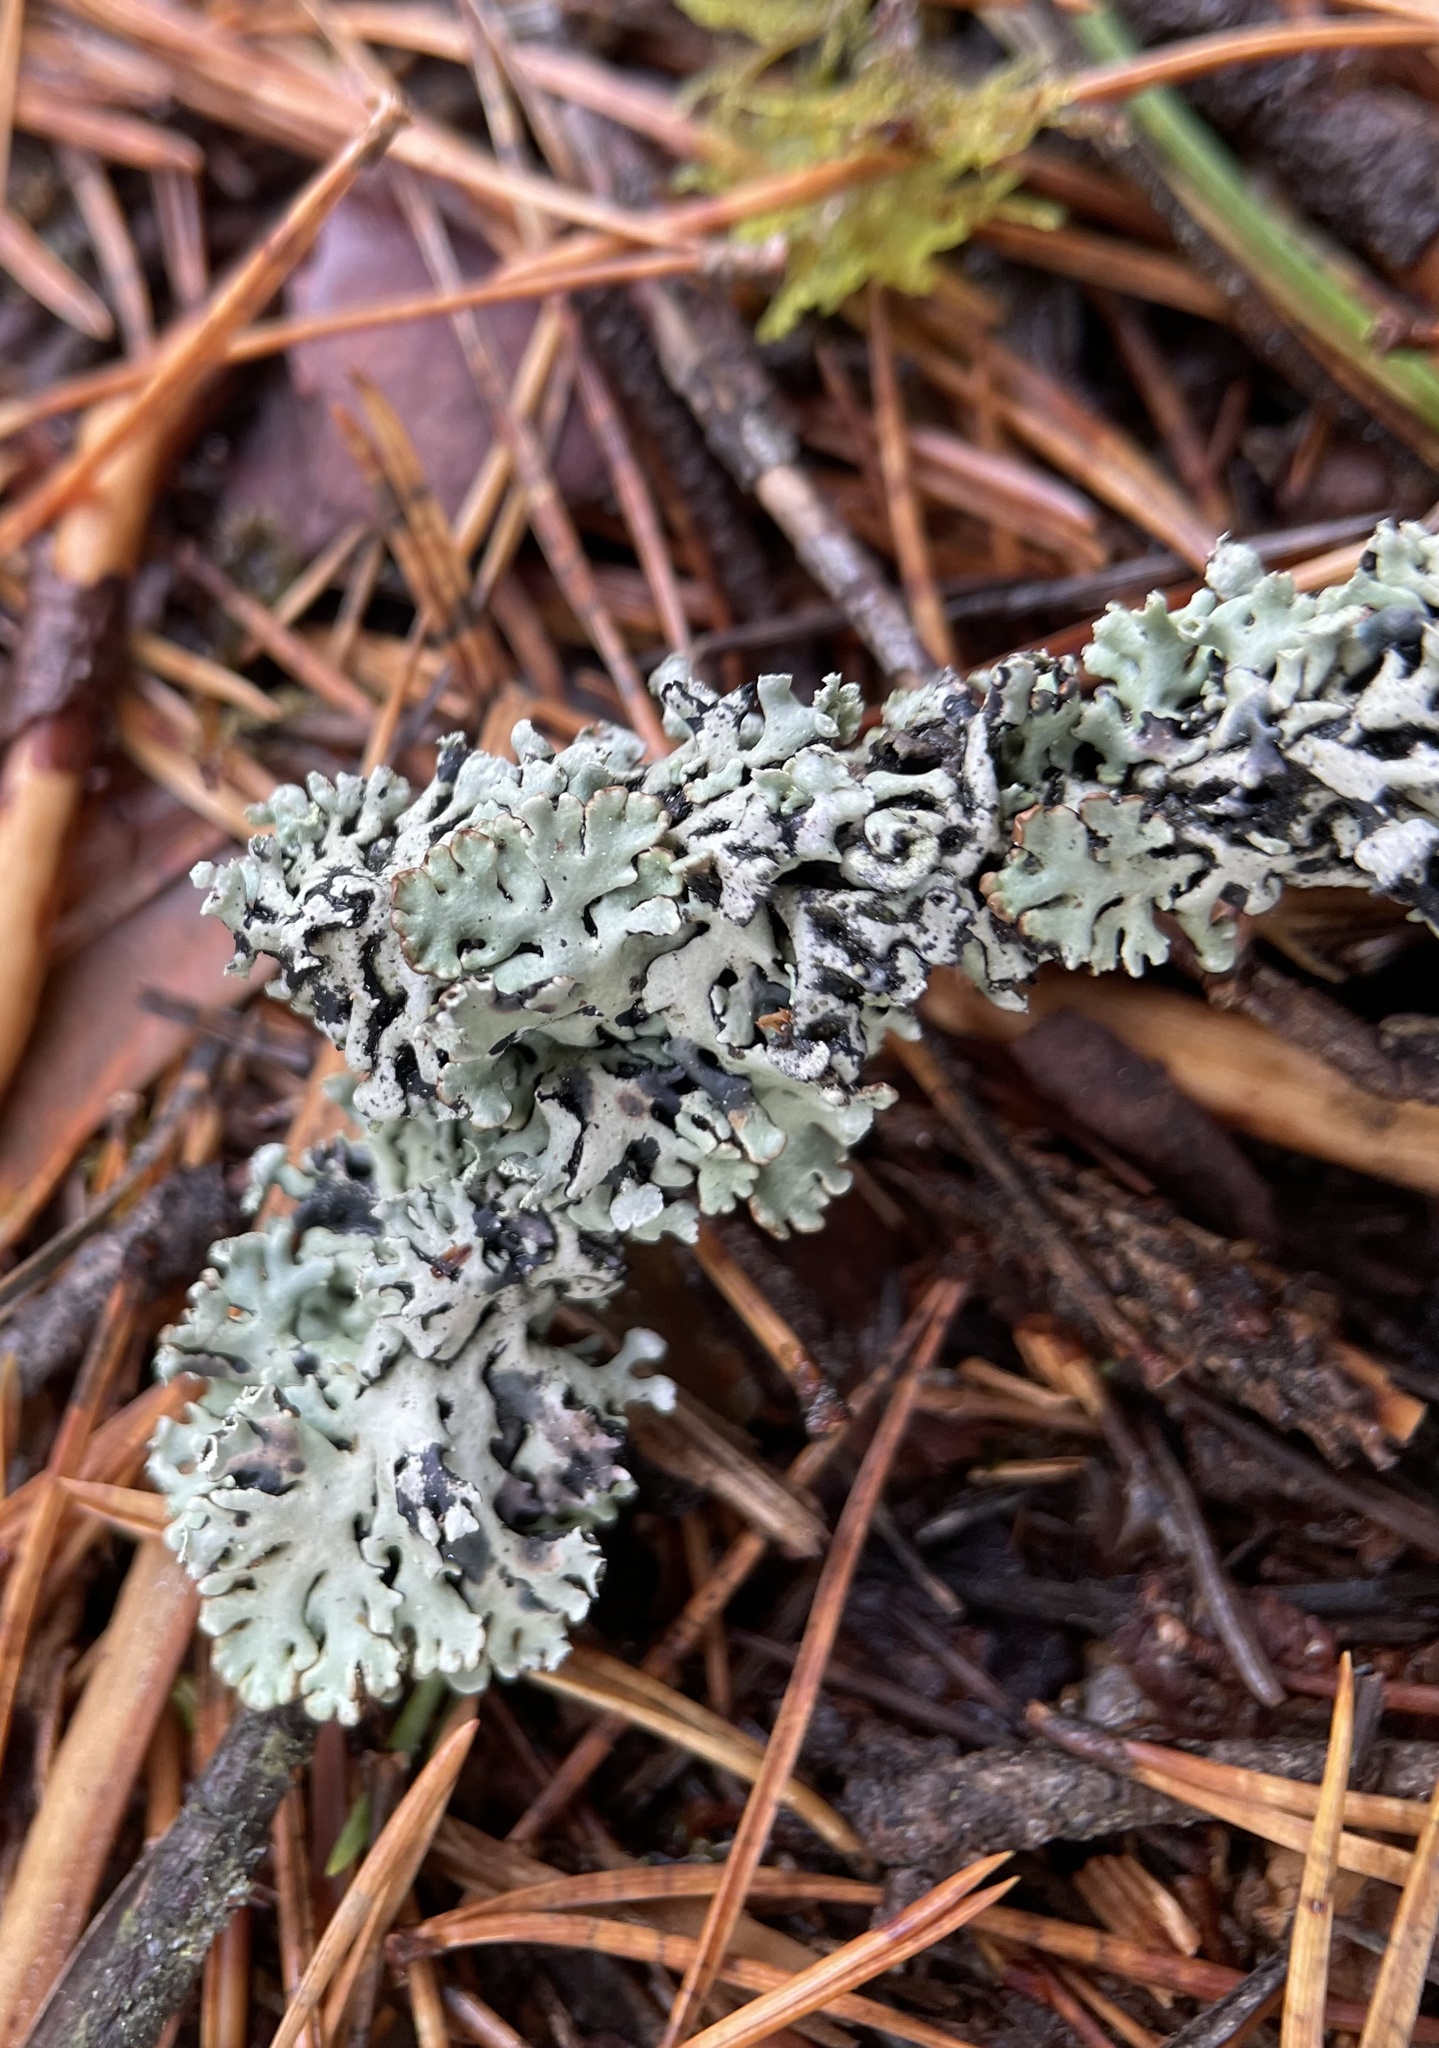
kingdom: Fungi
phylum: Ascomycota
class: Lecanoromycetes
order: Lecanorales
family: Parmeliaceae
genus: Hypogymnia
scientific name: Hypogymnia physodes
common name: Dark crottle
